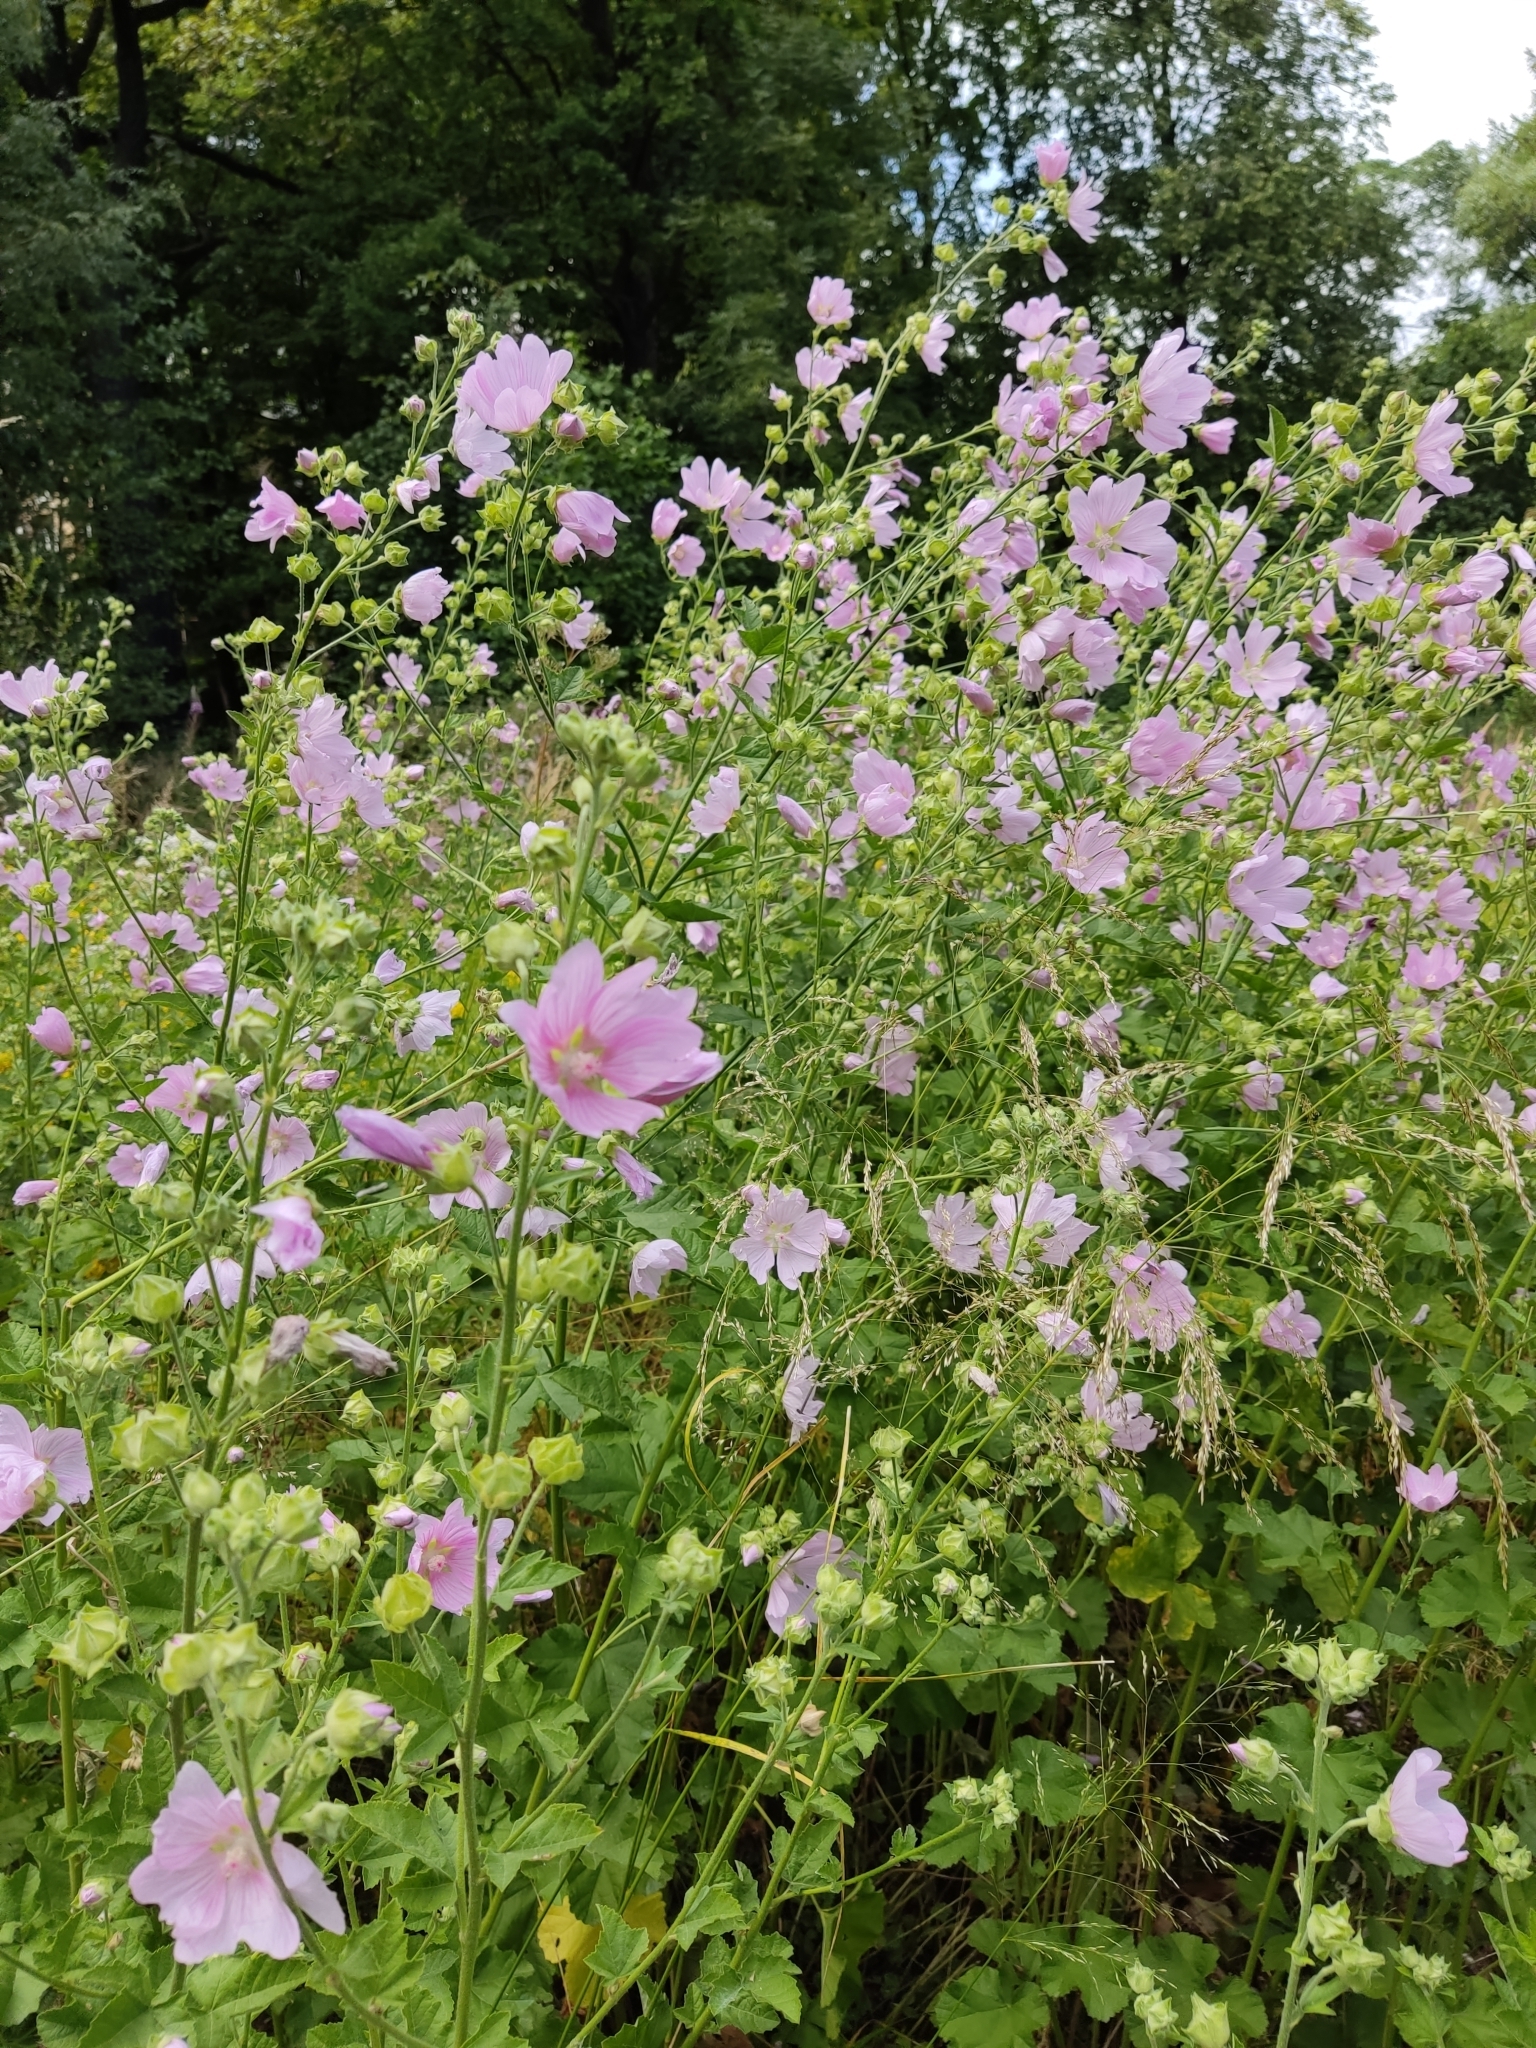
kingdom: Plantae
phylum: Tracheophyta
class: Magnoliopsida
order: Malvales
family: Malvaceae
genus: Malva
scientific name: Malva thuringiaca
